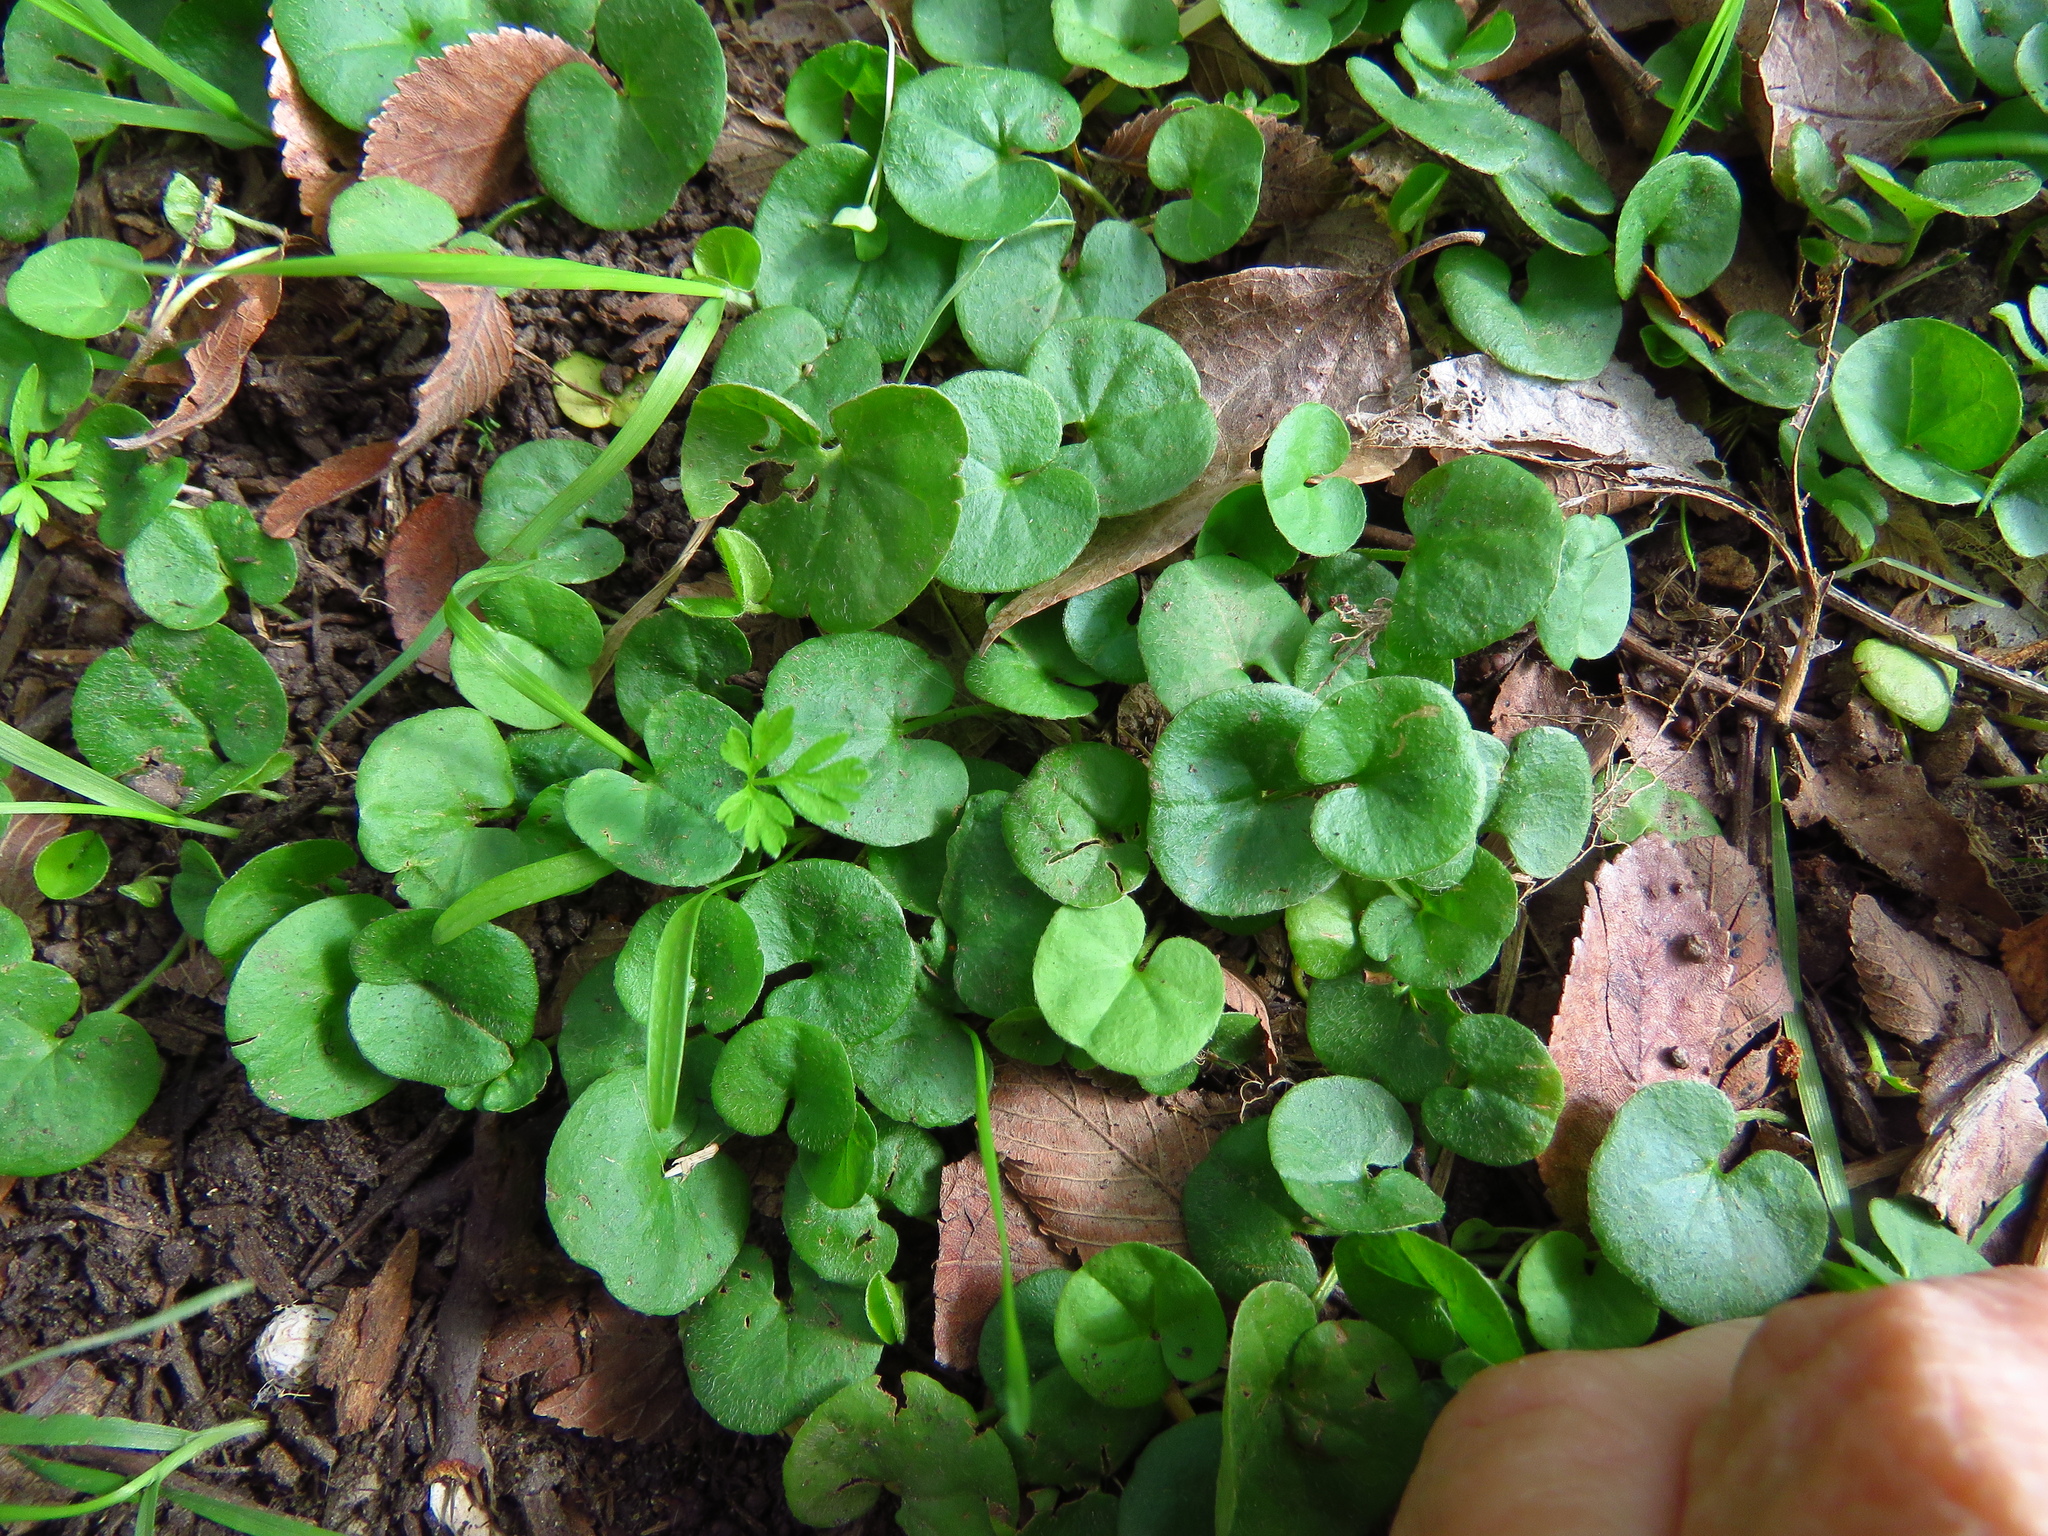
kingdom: Plantae
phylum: Tracheophyta
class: Magnoliopsida
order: Solanales
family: Convolvulaceae
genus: Dichondra
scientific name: Dichondra carolinensis
